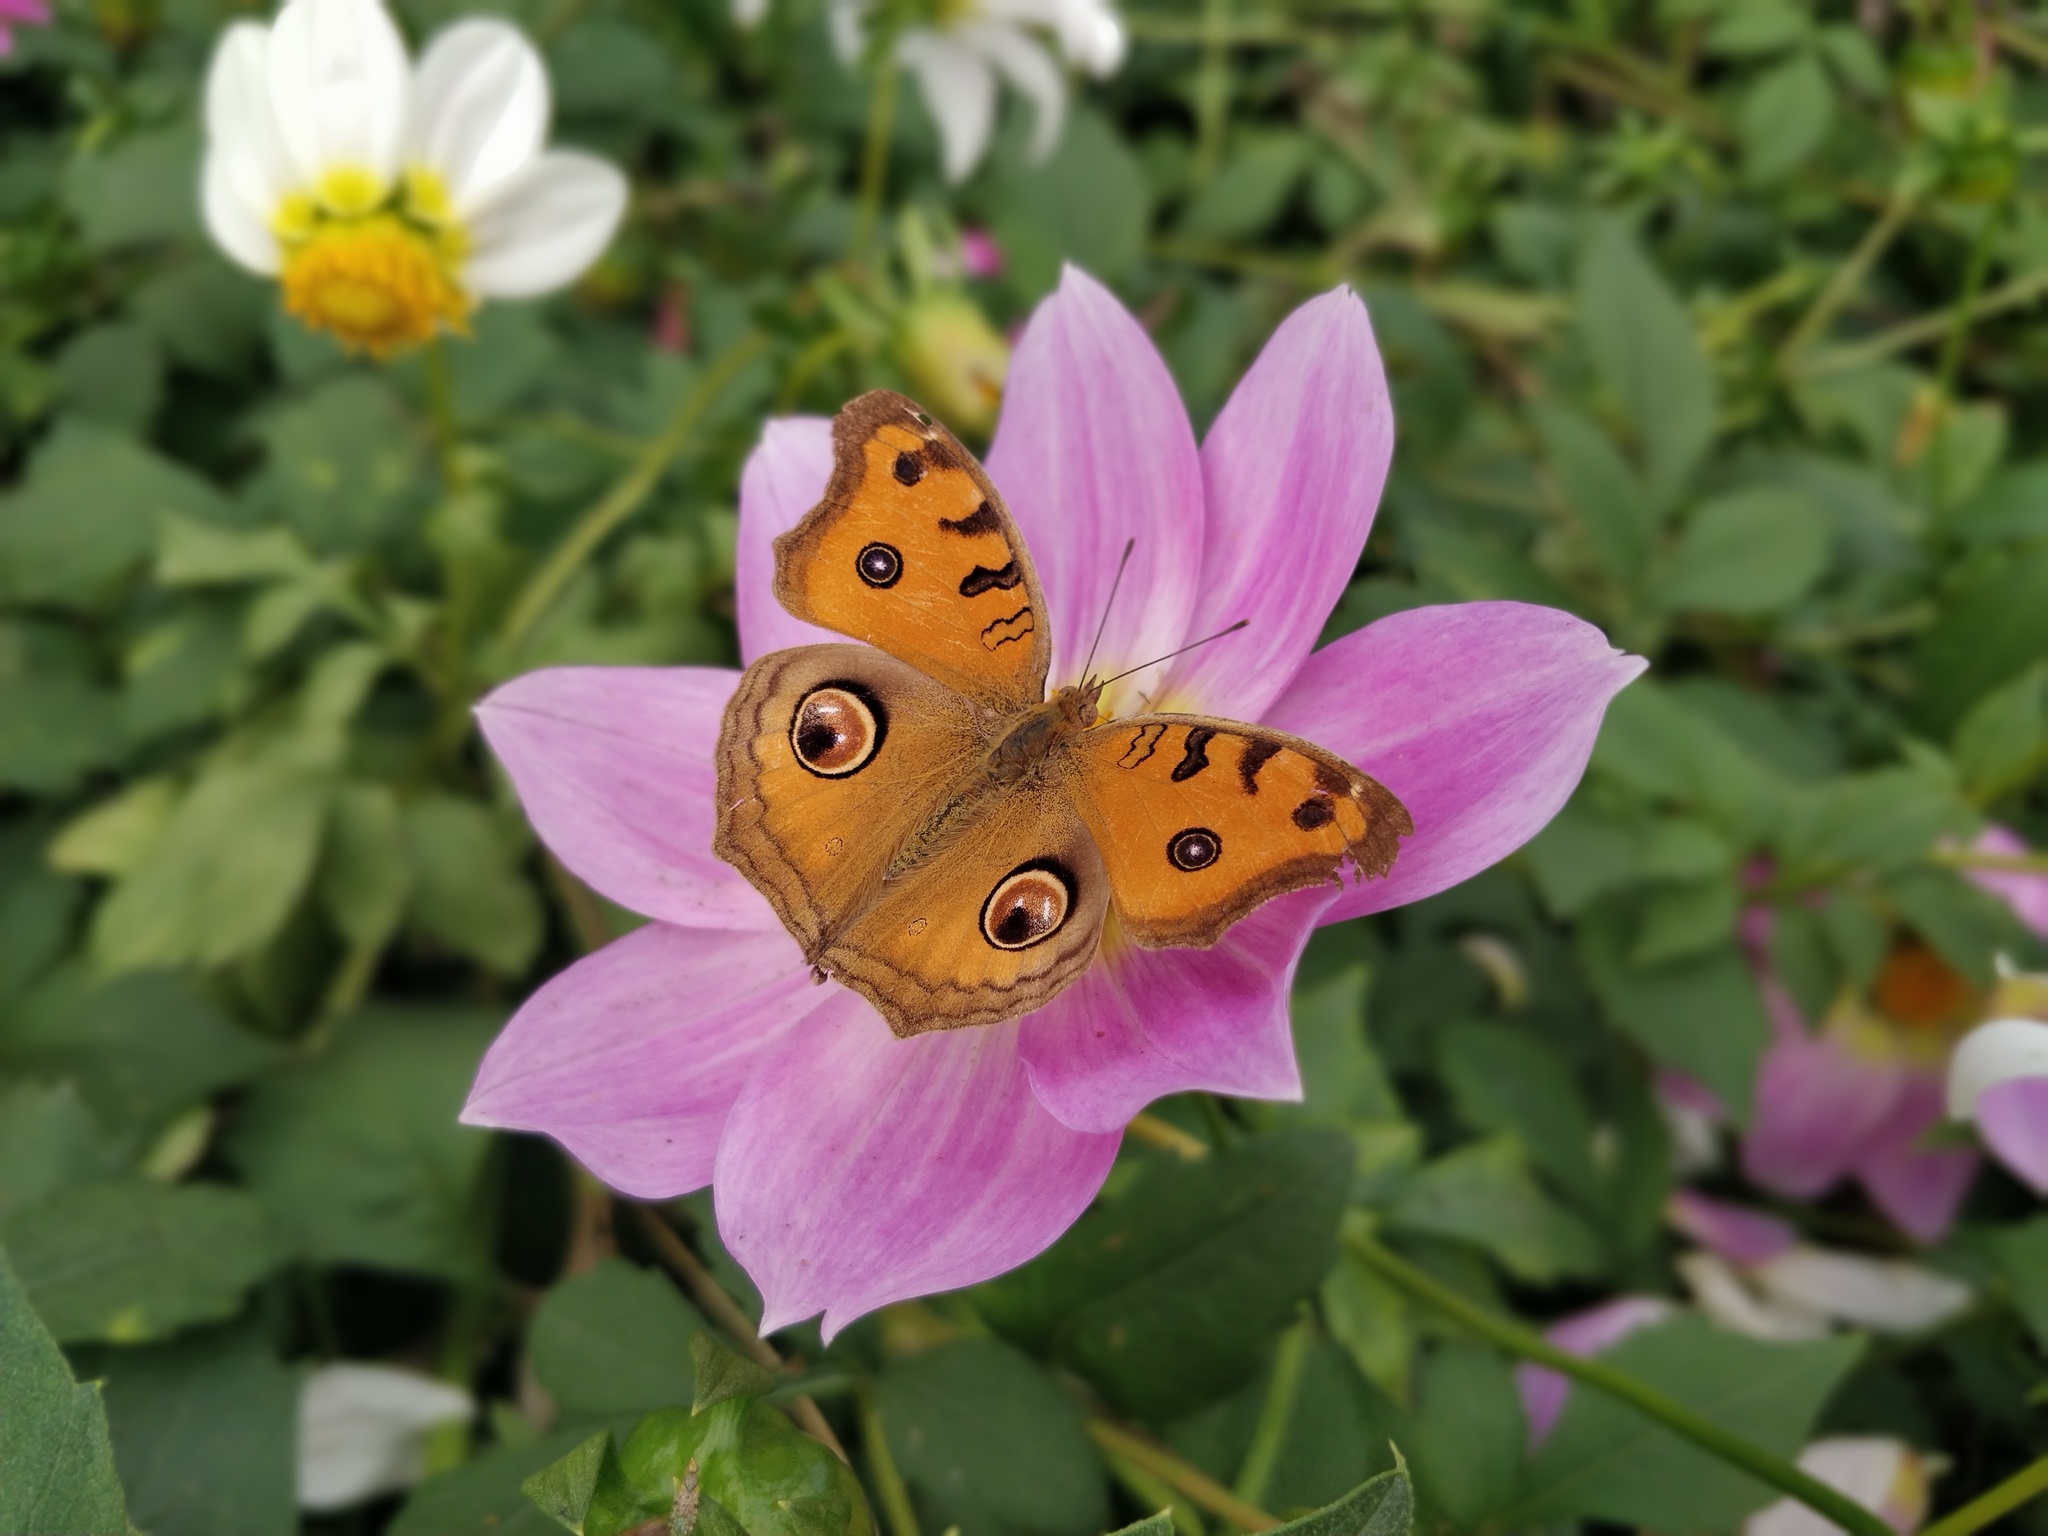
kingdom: Animalia
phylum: Arthropoda
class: Insecta
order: Lepidoptera
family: Nymphalidae
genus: Junonia
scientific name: Junonia almana
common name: Peacock pansy
